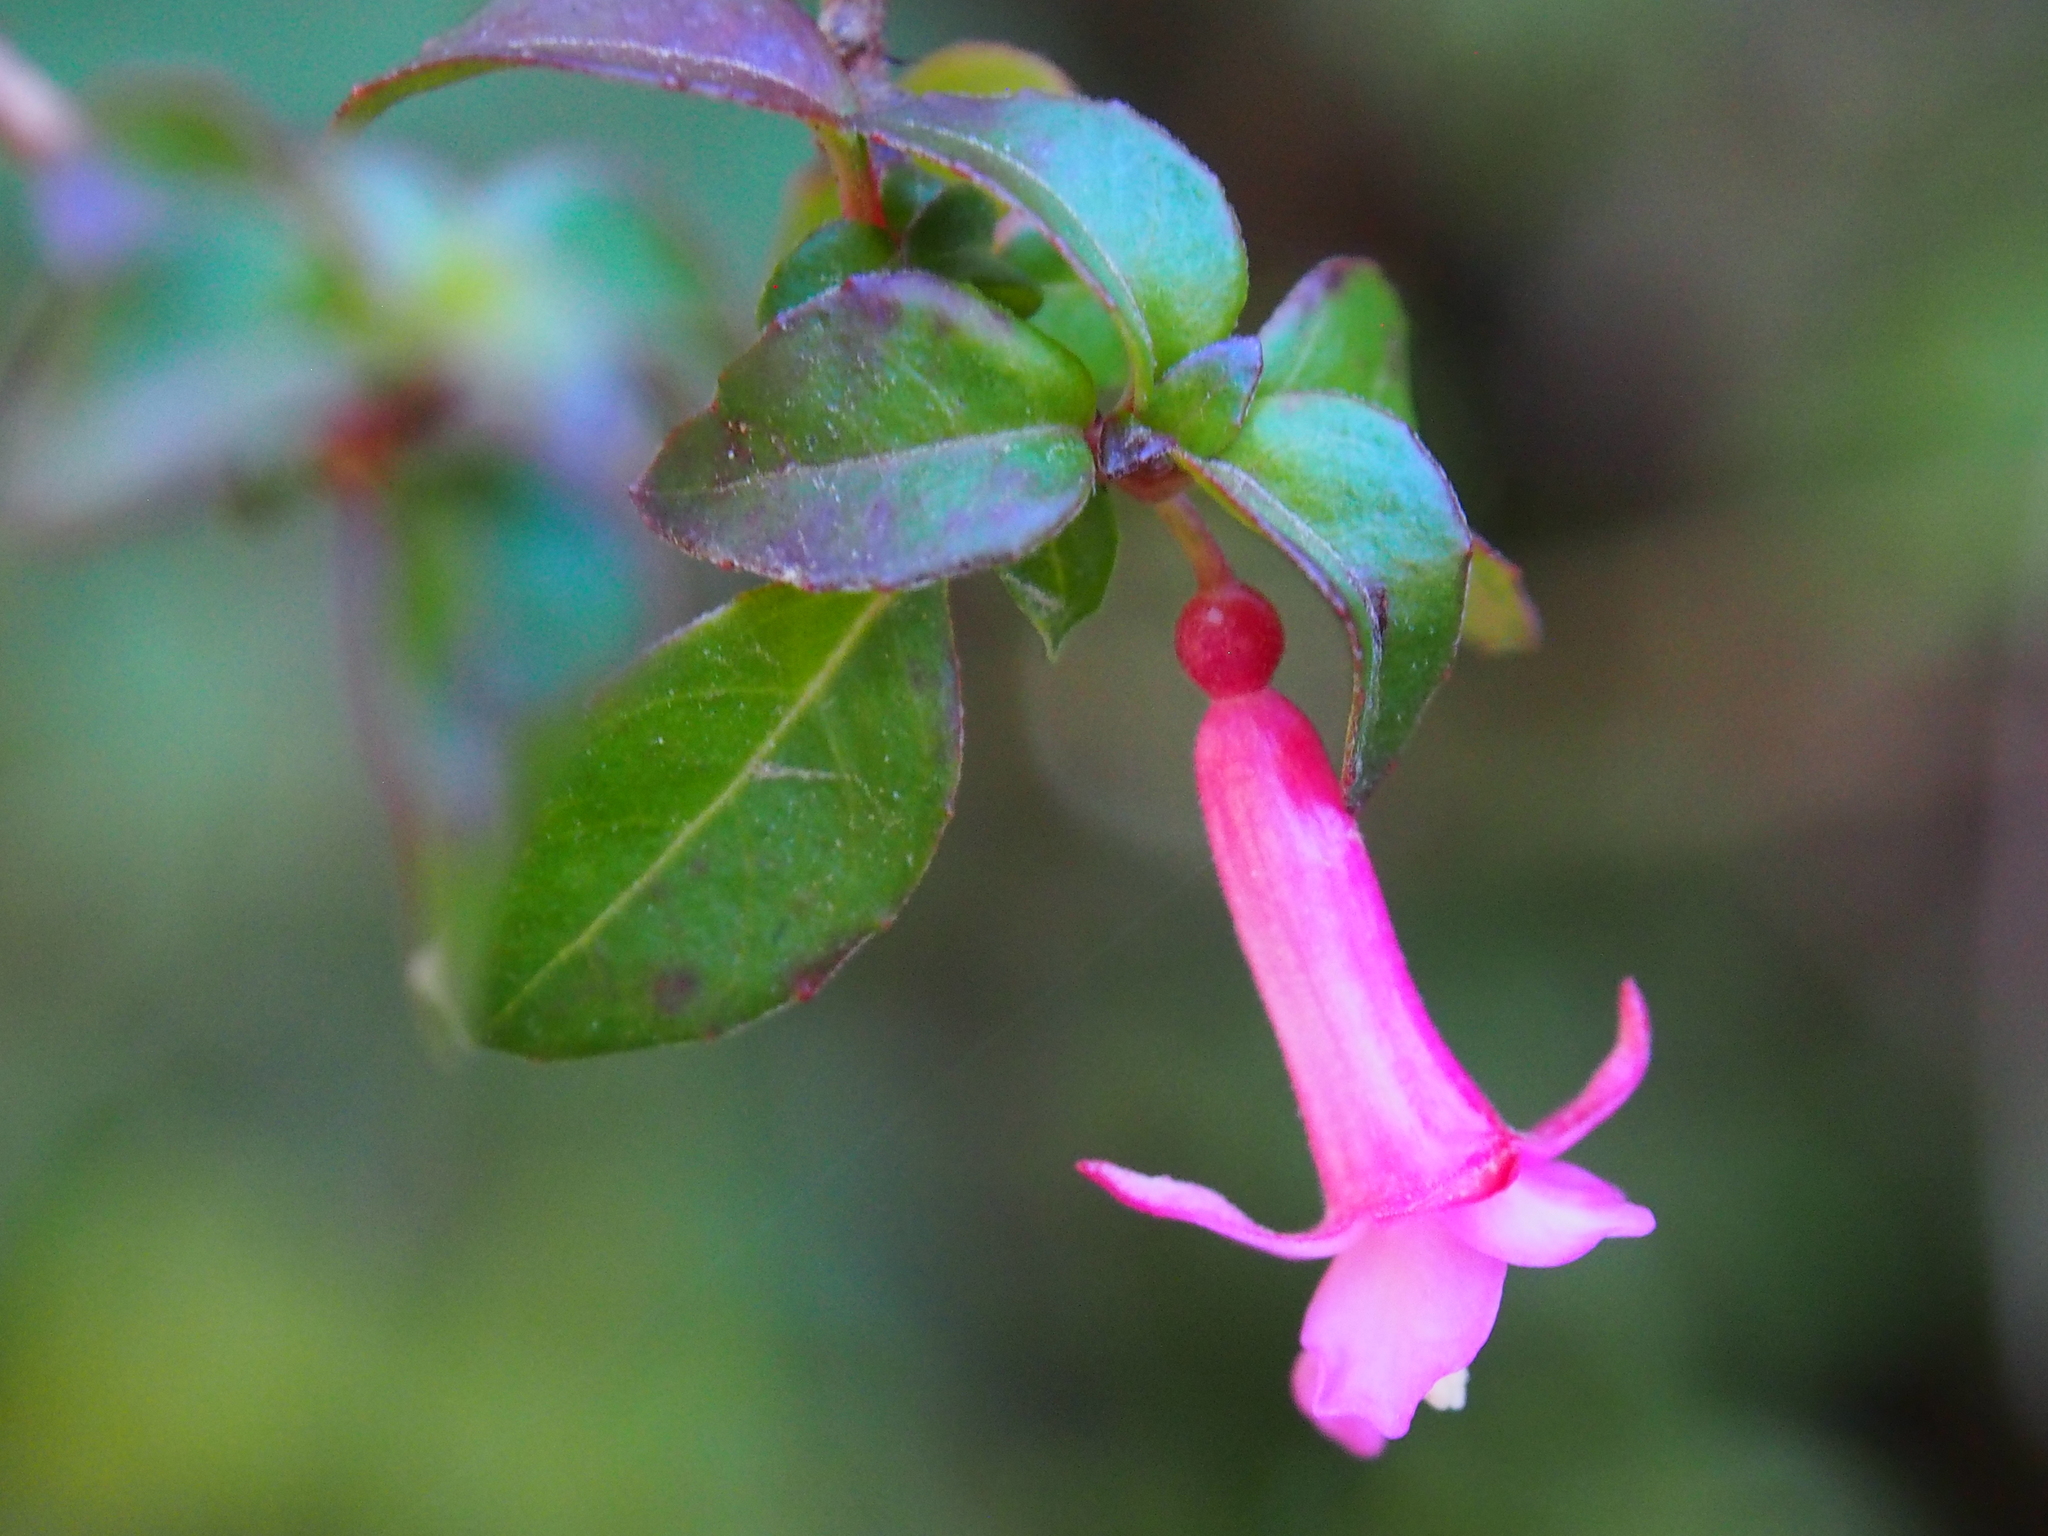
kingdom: Plantae
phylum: Tracheophyta
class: Magnoliopsida
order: Myrtales
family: Onagraceae
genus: Fuchsia
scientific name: Fuchsia microphylla
